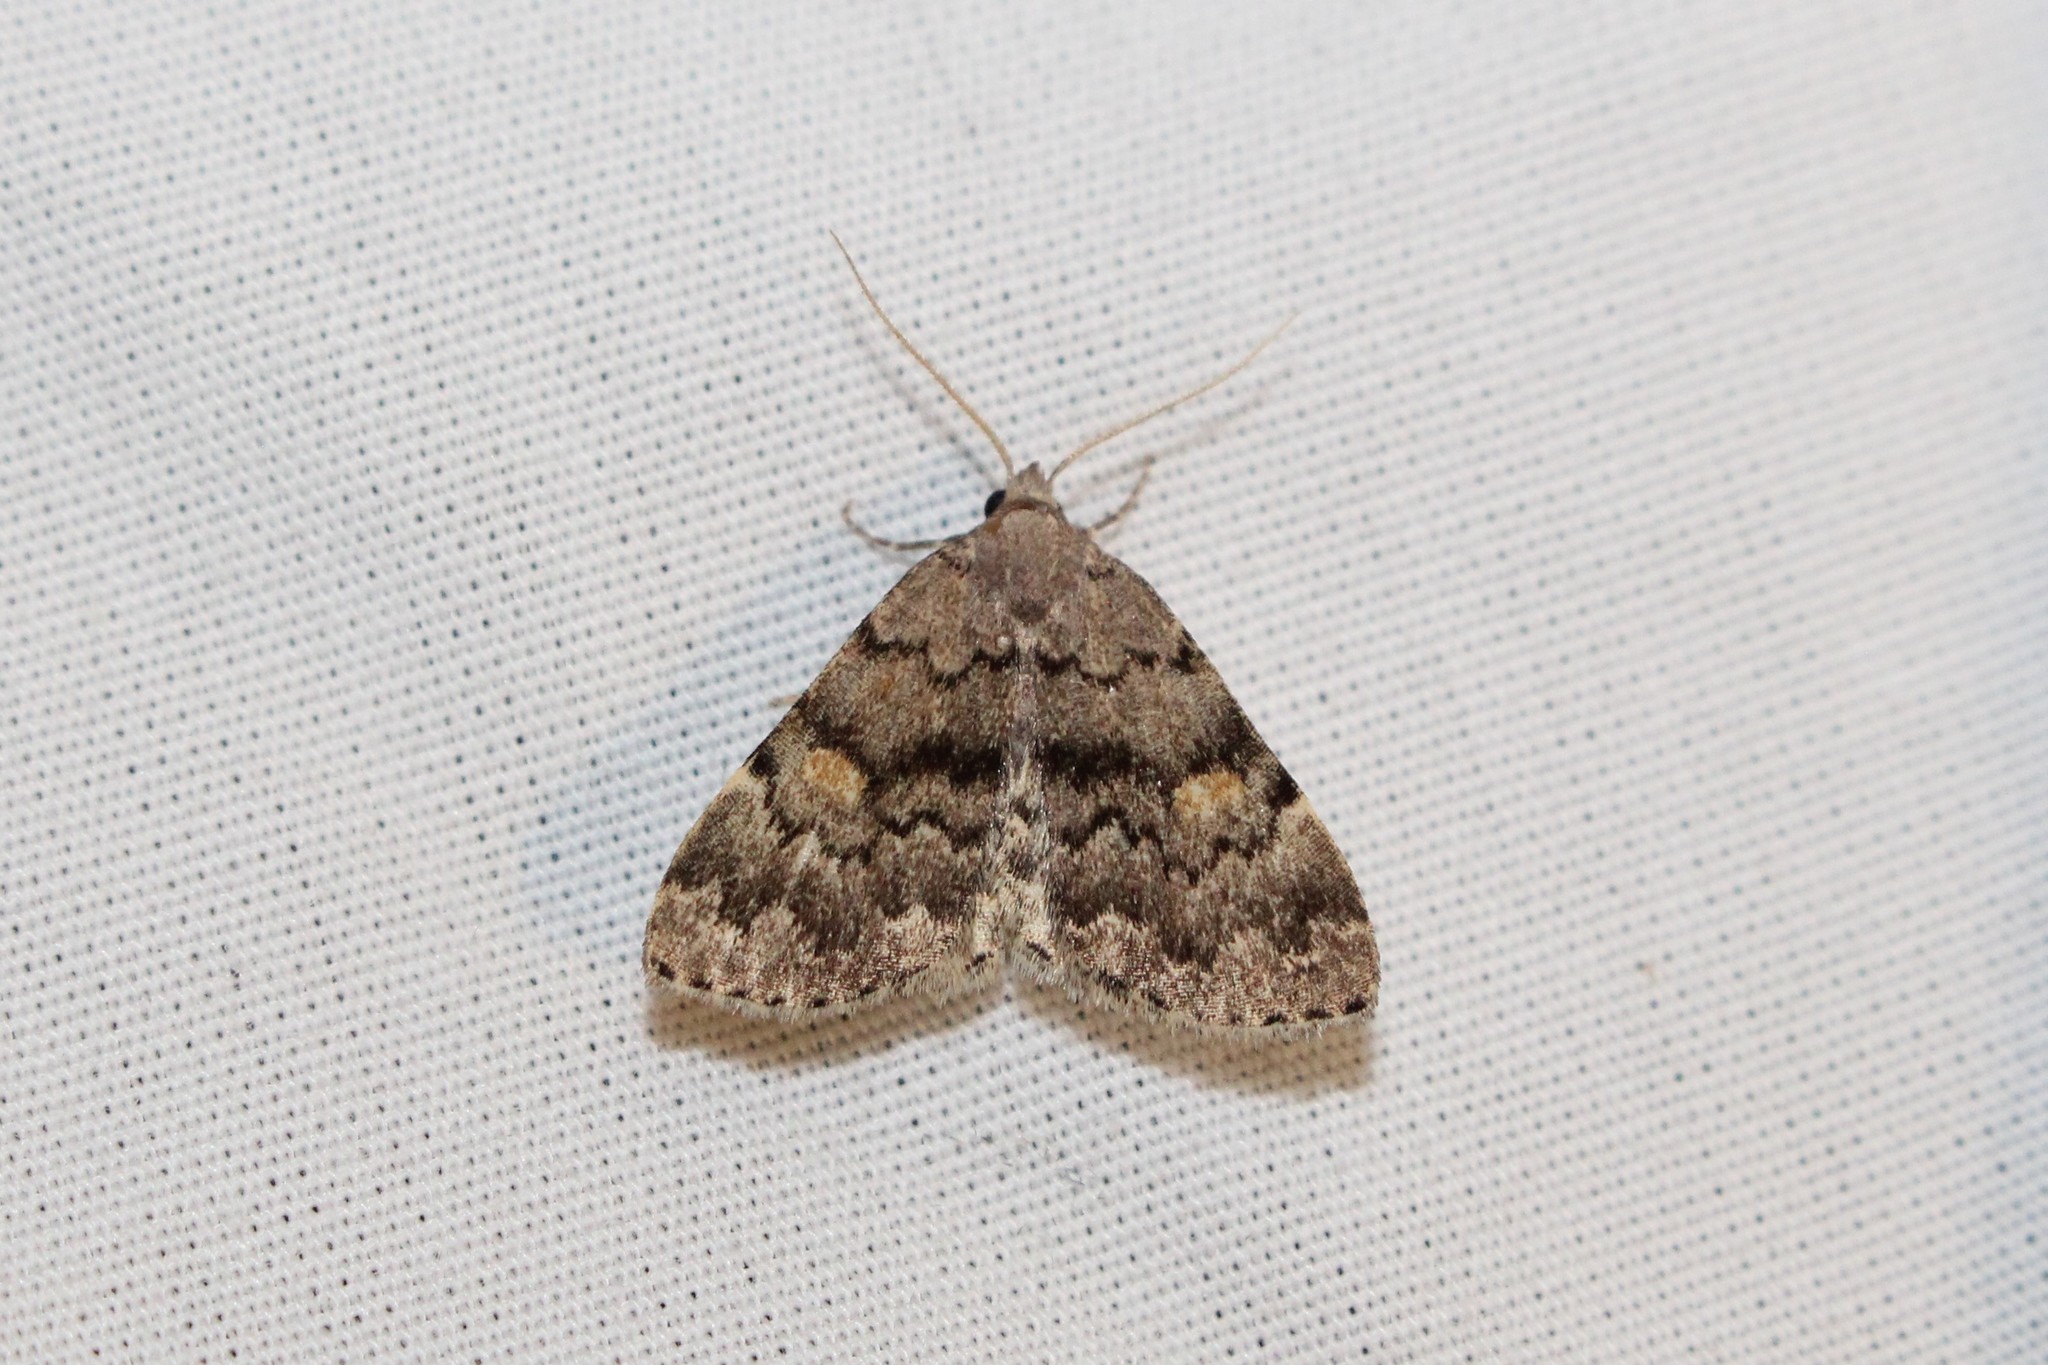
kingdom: Animalia
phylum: Arthropoda
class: Insecta
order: Lepidoptera
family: Erebidae
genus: Idia
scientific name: Idia aemula
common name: Common idia moth
